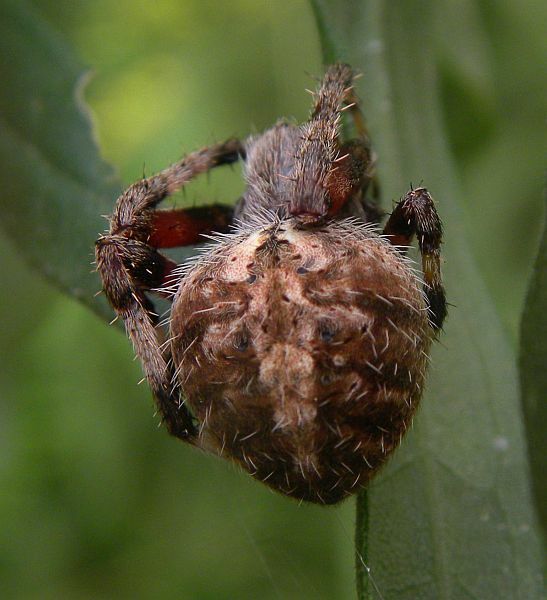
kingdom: Animalia
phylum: Arthropoda
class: Arachnida
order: Araneae
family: Araneidae
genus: Neoscona
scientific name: Neoscona crucifera
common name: Spotted orbweaver
